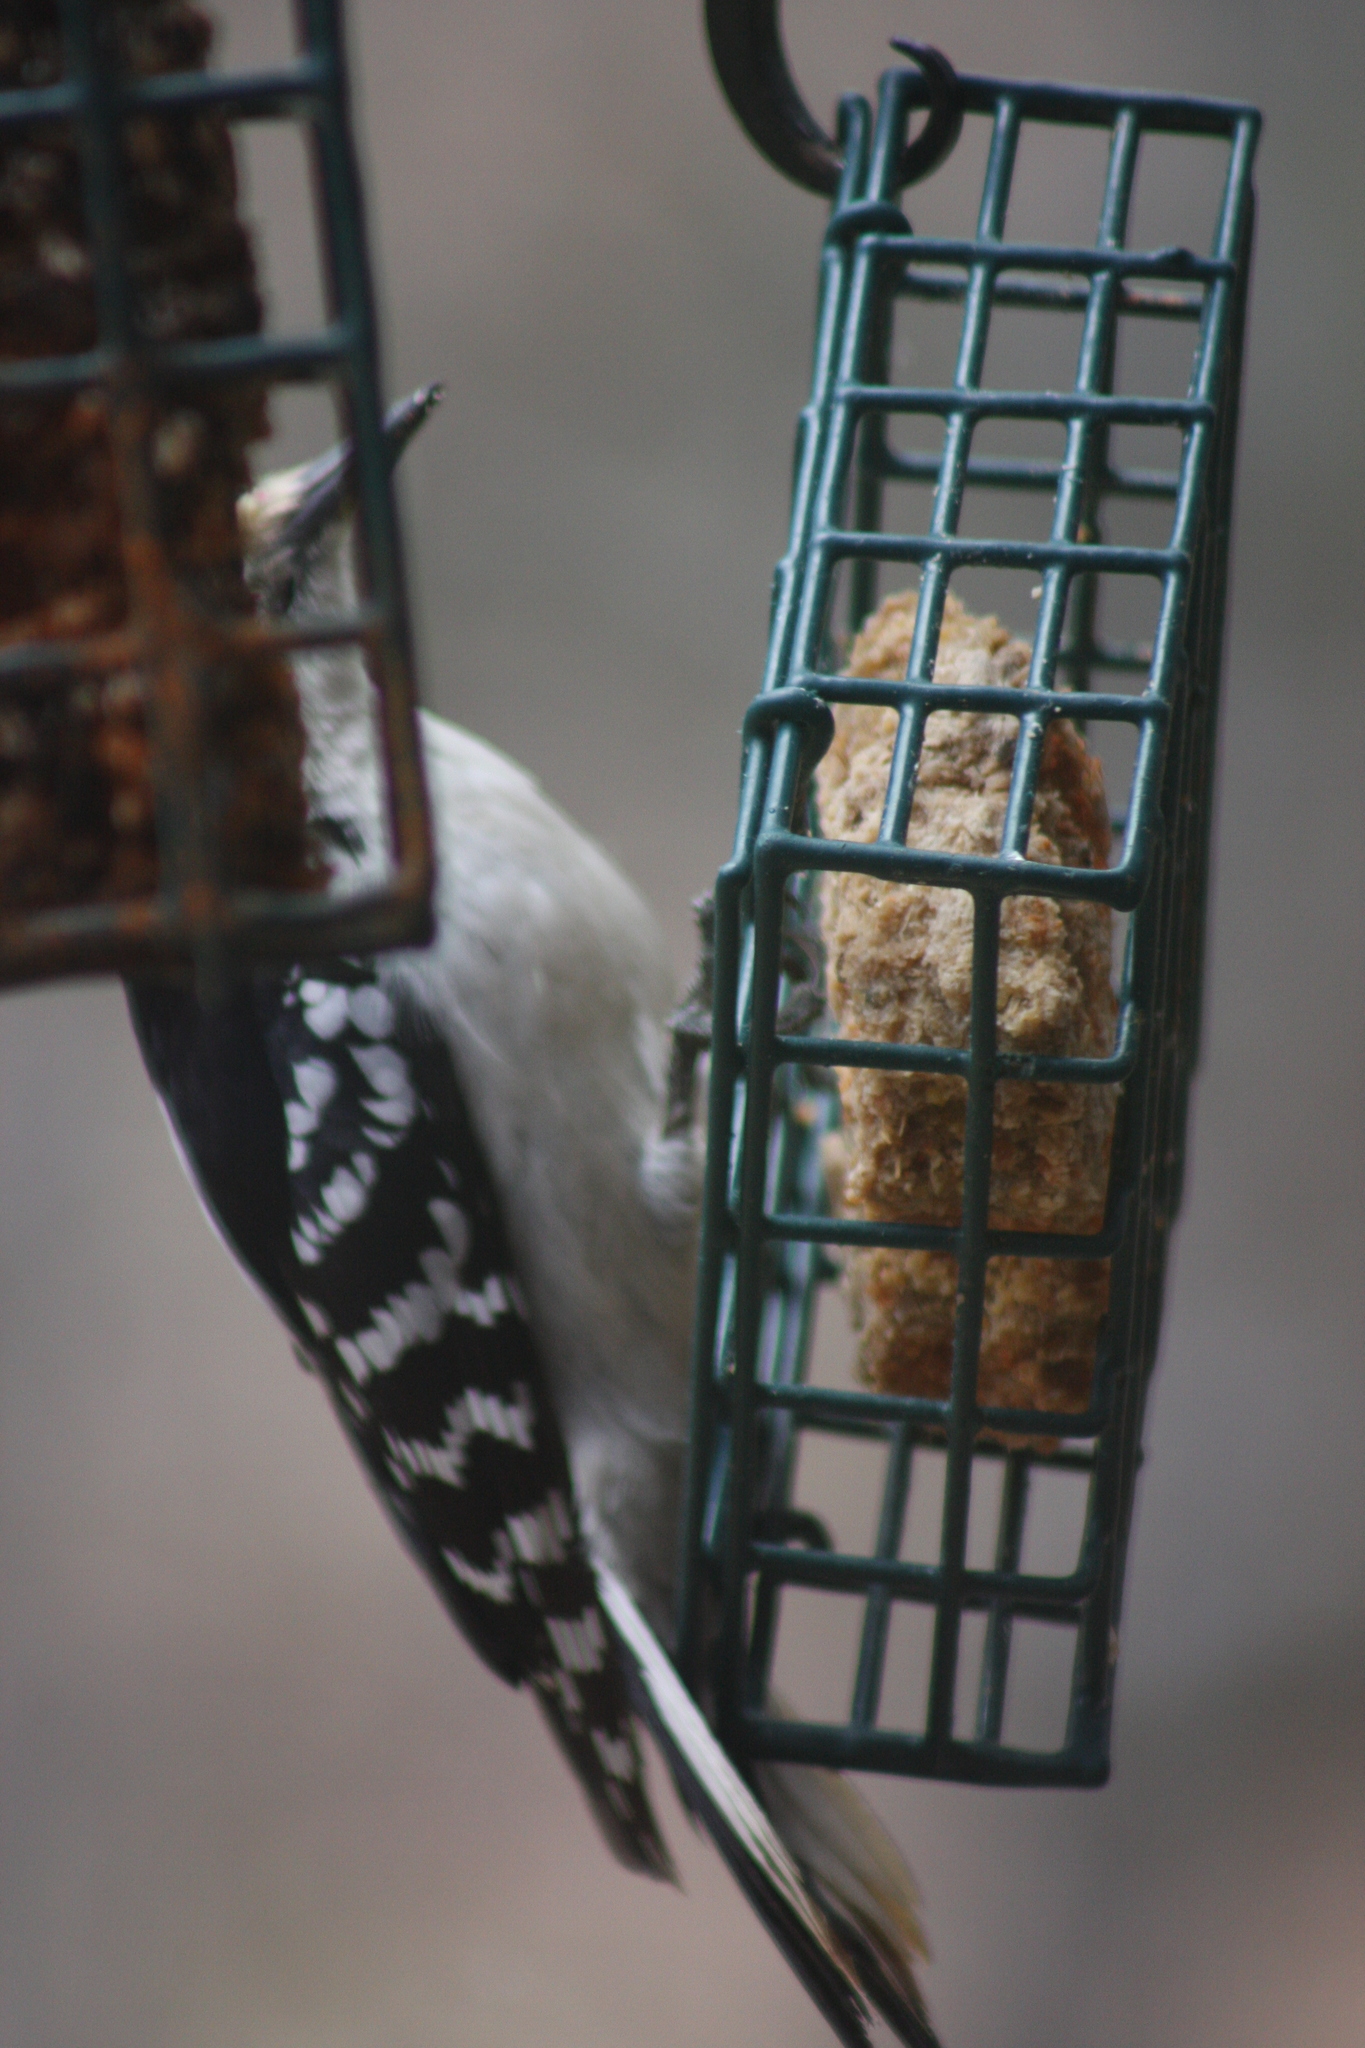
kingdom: Animalia
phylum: Chordata
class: Aves
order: Piciformes
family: Picidae
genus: Leuconotopicus
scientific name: Leuconotopicus villosus
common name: Hairy woodpecker
